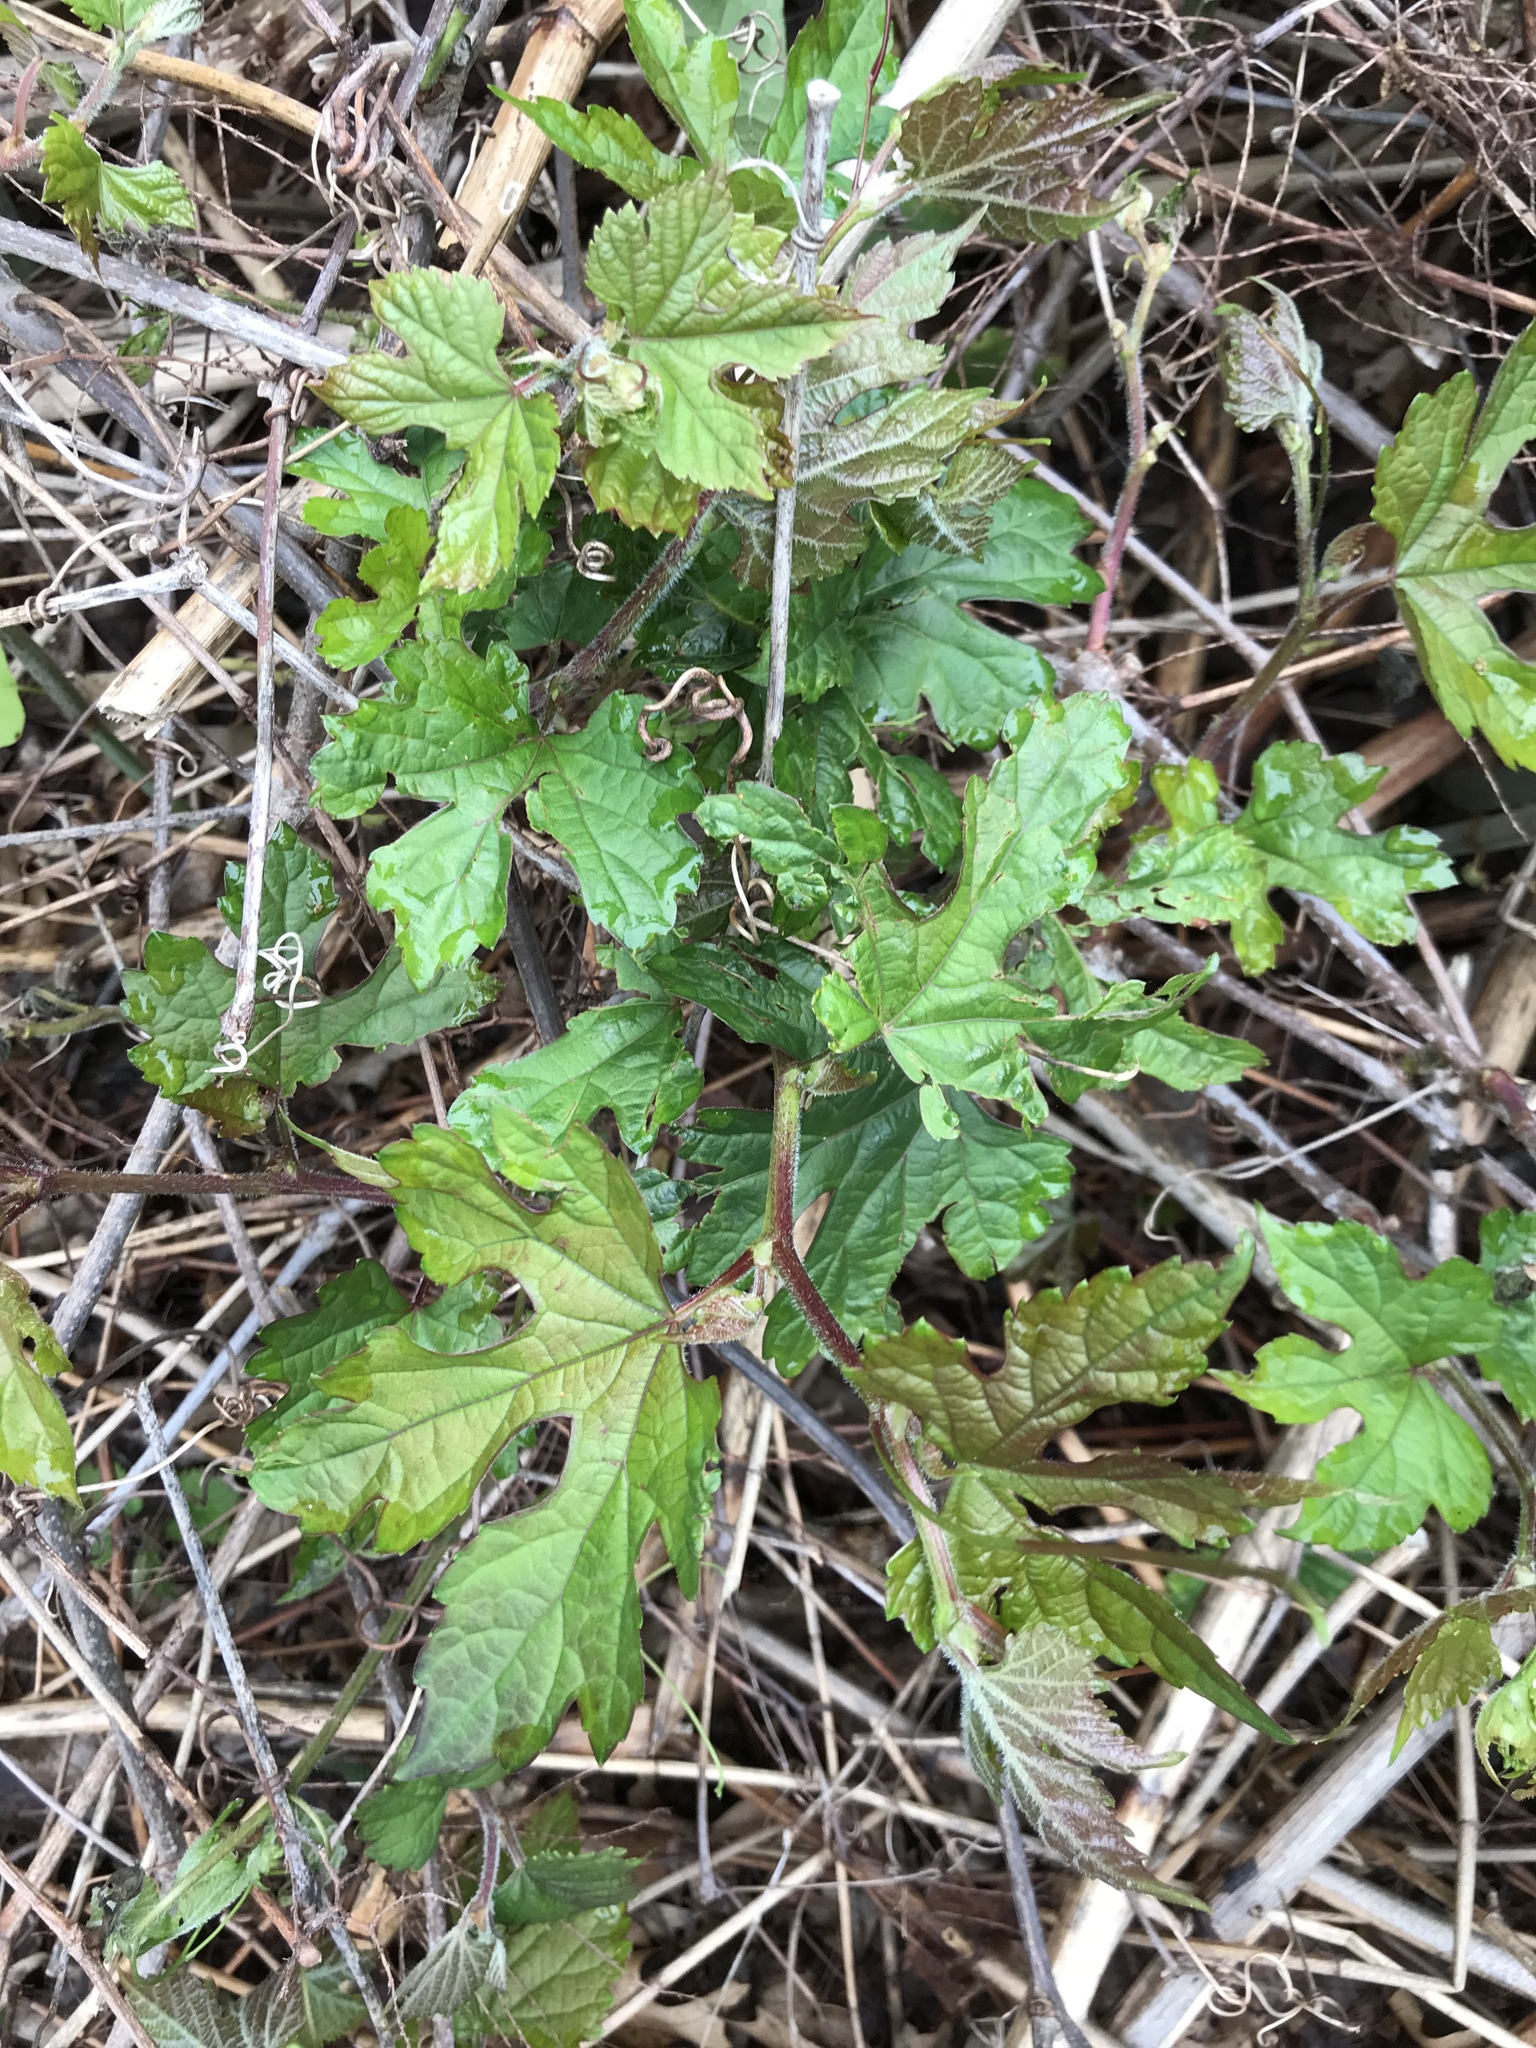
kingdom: Plantae
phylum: Tracheophyta
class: Magnoliopsida
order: Vitales
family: Vitaceae
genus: Ampelopsis
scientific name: Ampelopsis glandulosa
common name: Amur peppervine
